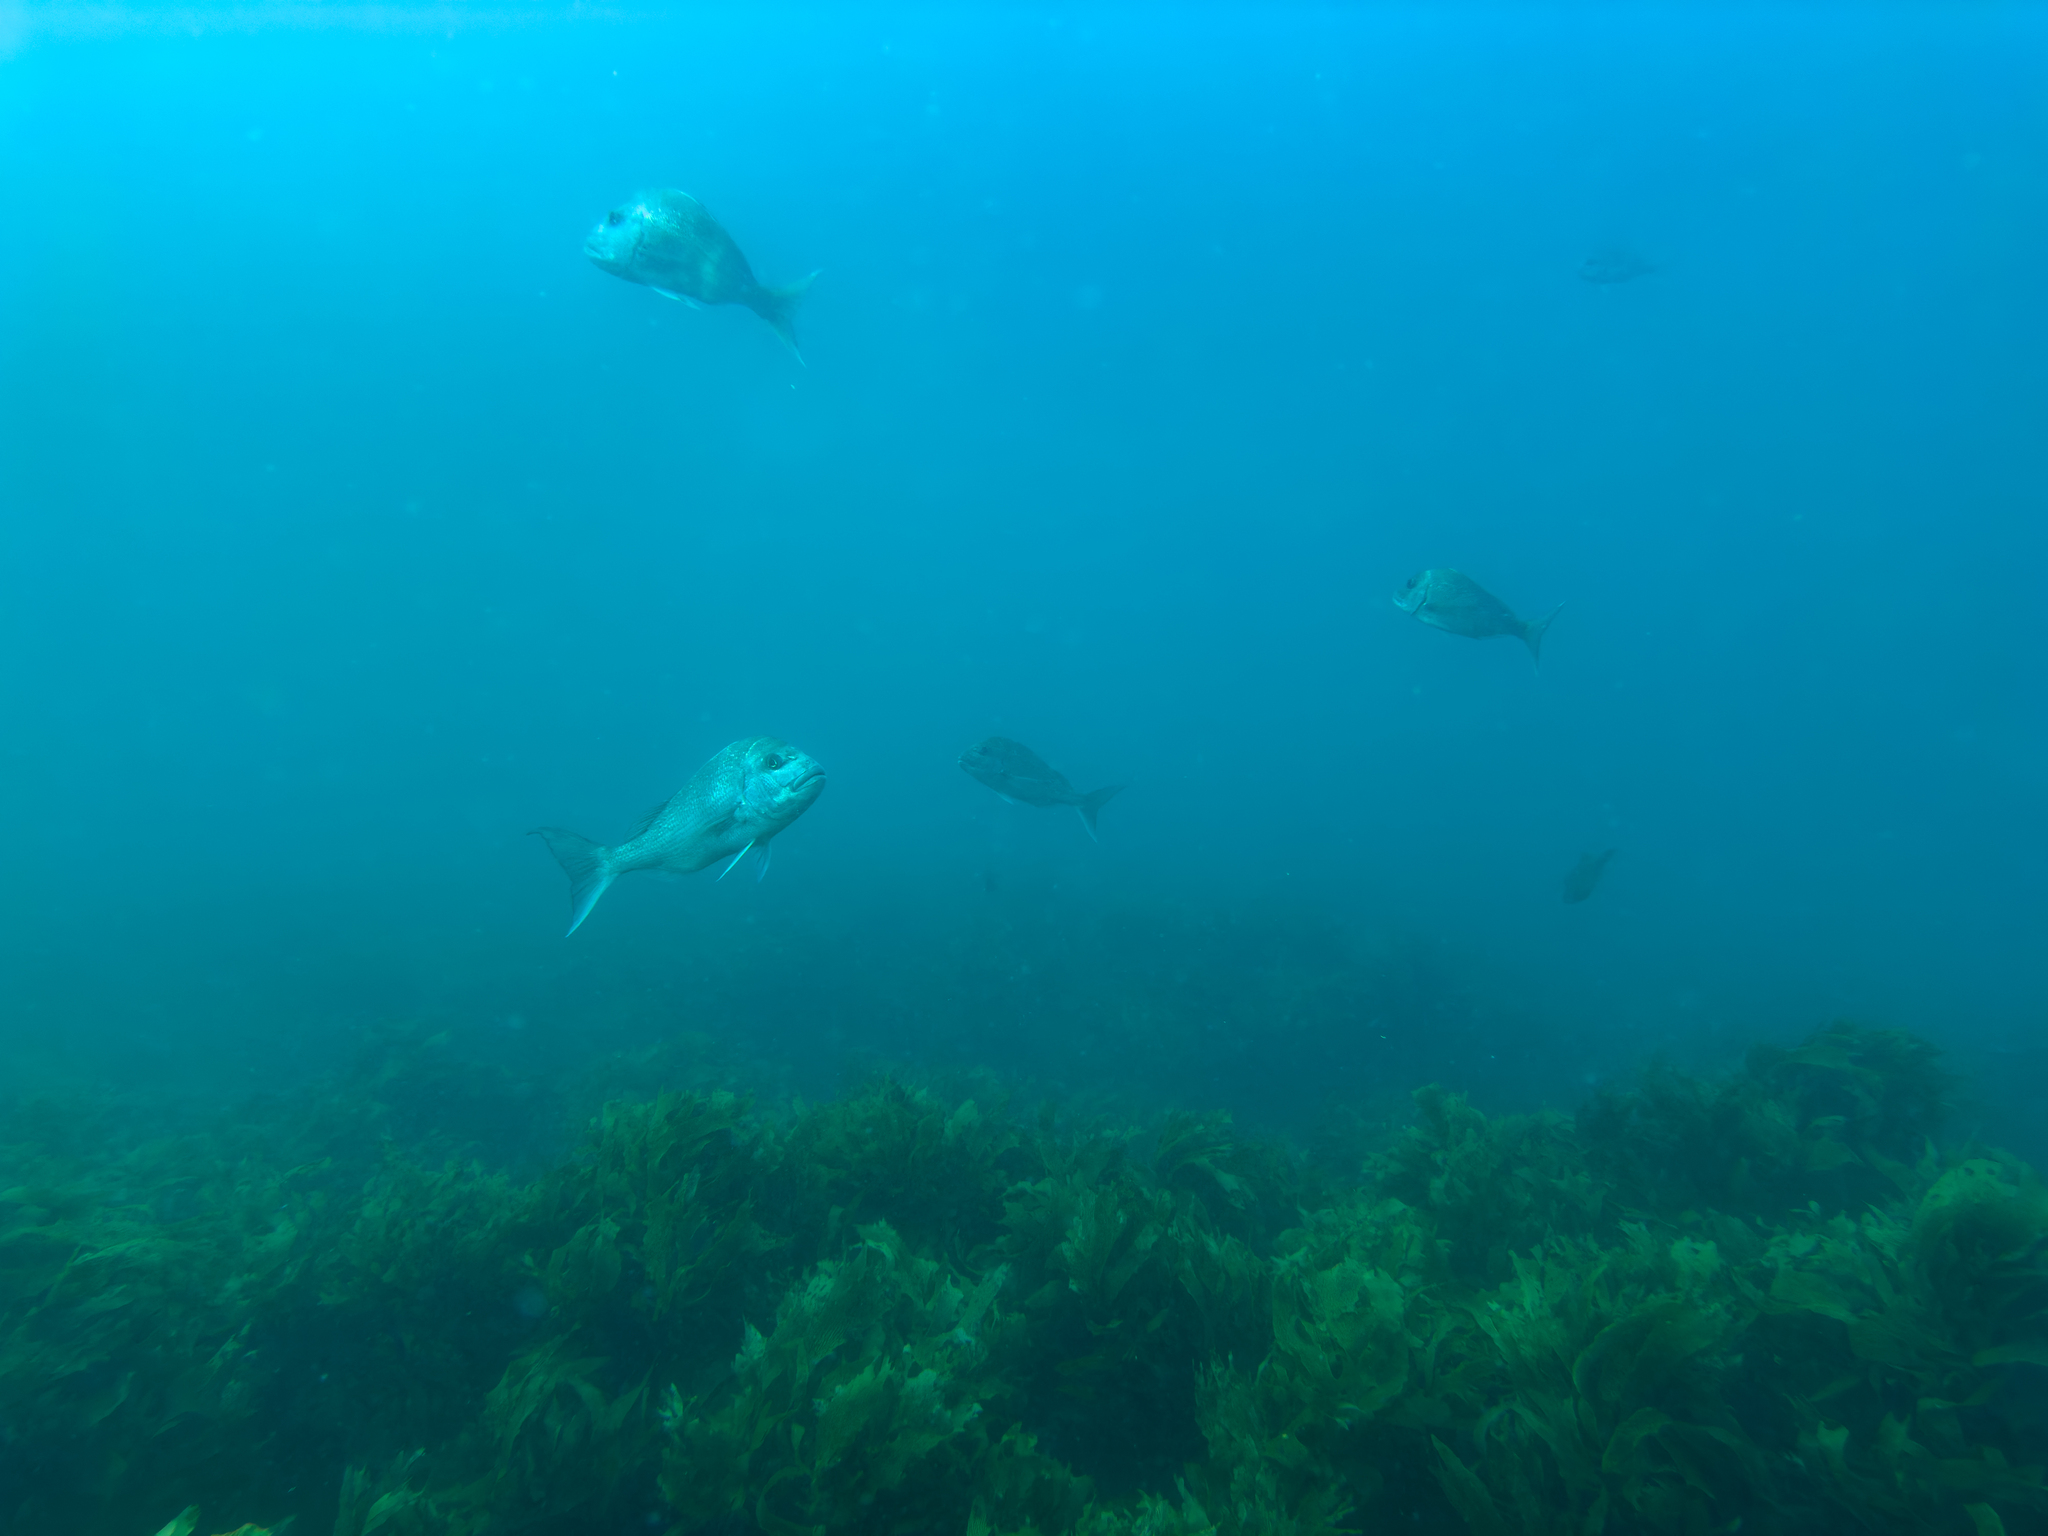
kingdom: Animalia
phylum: Chordata
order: Perciformes
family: Sparidae
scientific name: Sparidae
